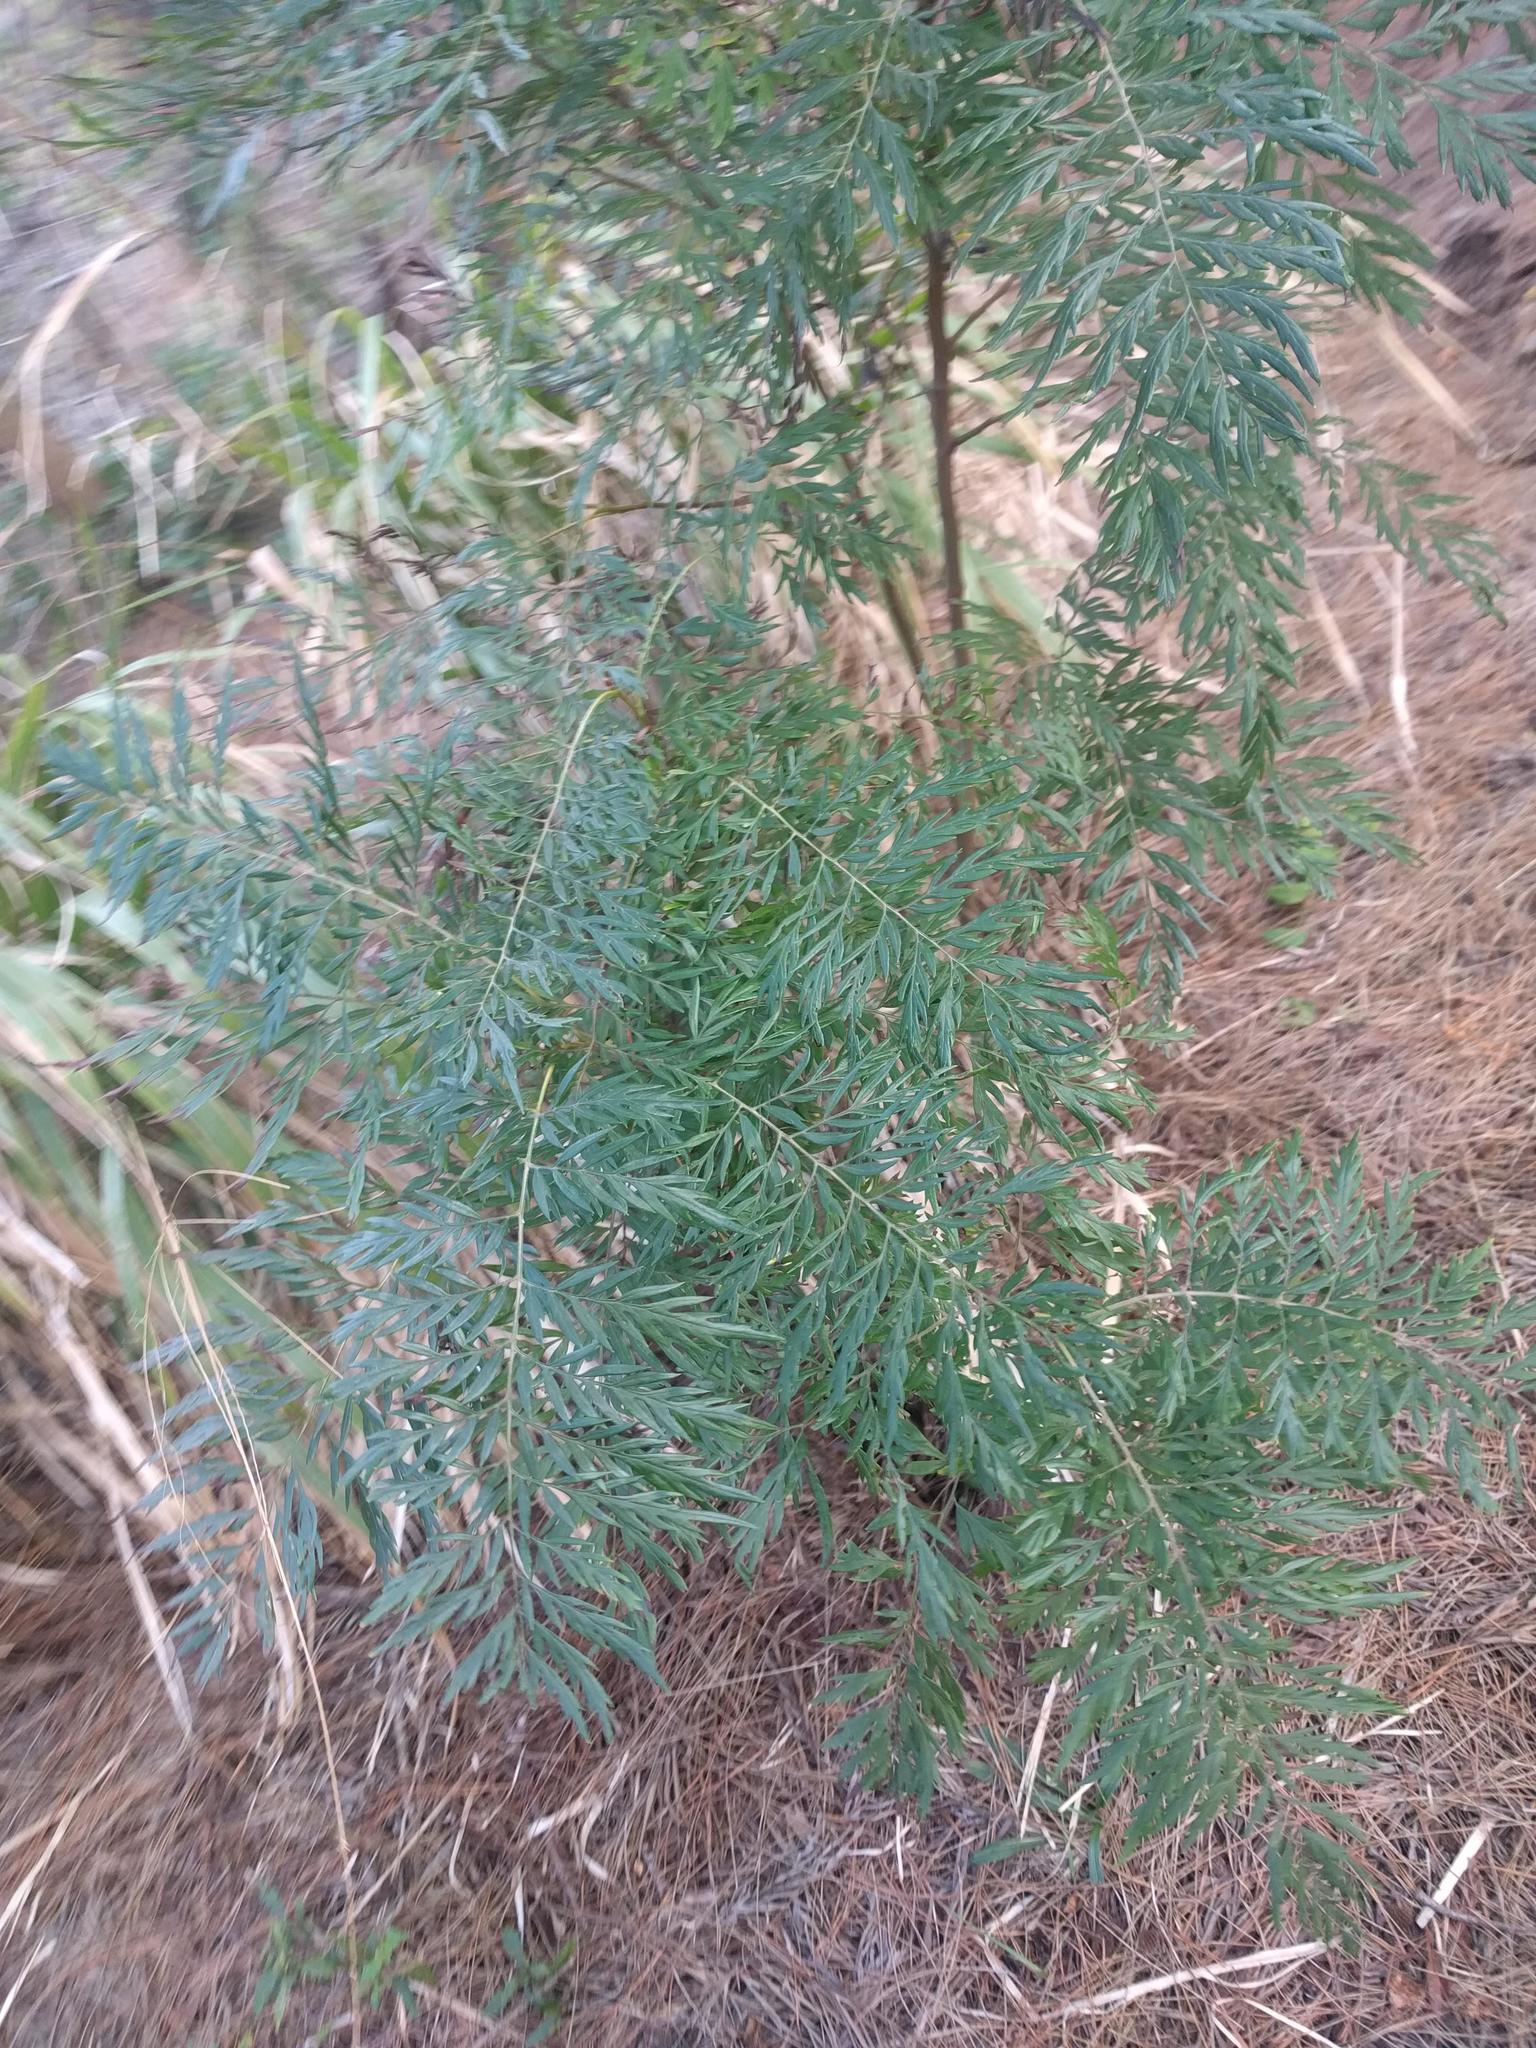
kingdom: Plantae
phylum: Tracheophyta
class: Magnoliopsida
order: Proteales
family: Proteaceae
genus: Grevillea
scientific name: Grevillea robusta
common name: Silkoak
